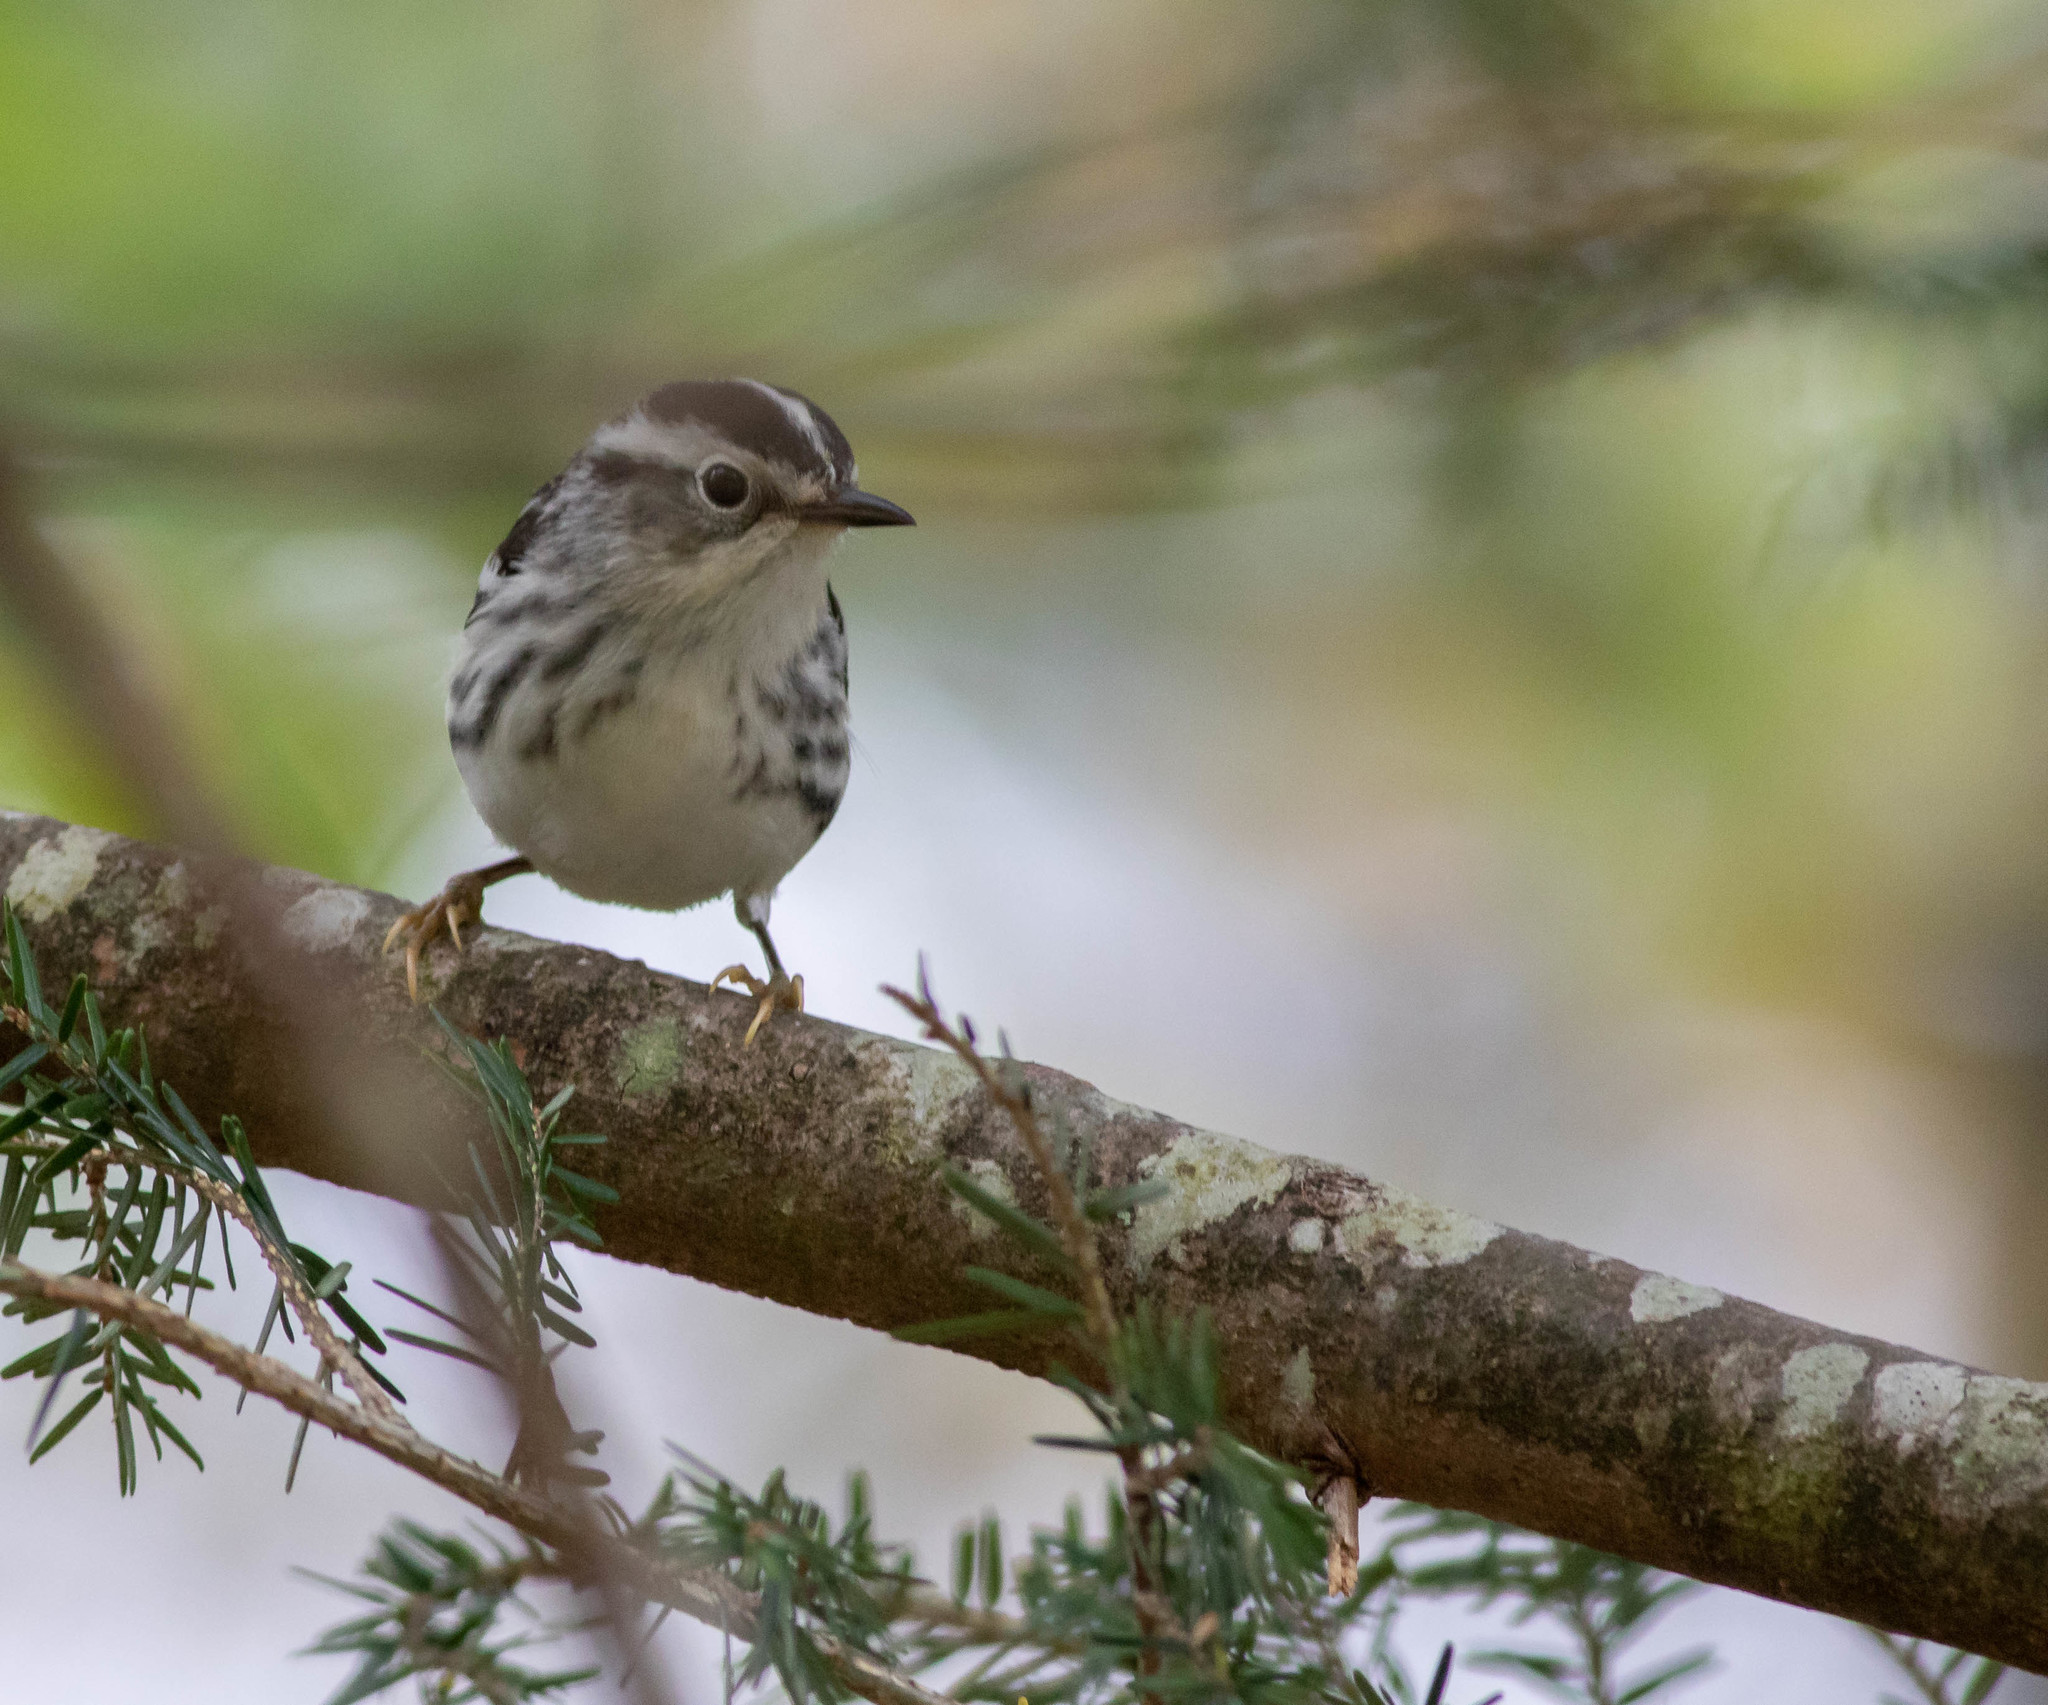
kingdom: Animalia
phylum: Chordata
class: Aves
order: Passeriformes
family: Parulidae
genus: Mniotilta
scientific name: Mniotilta varia
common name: Black-and-white warbler
